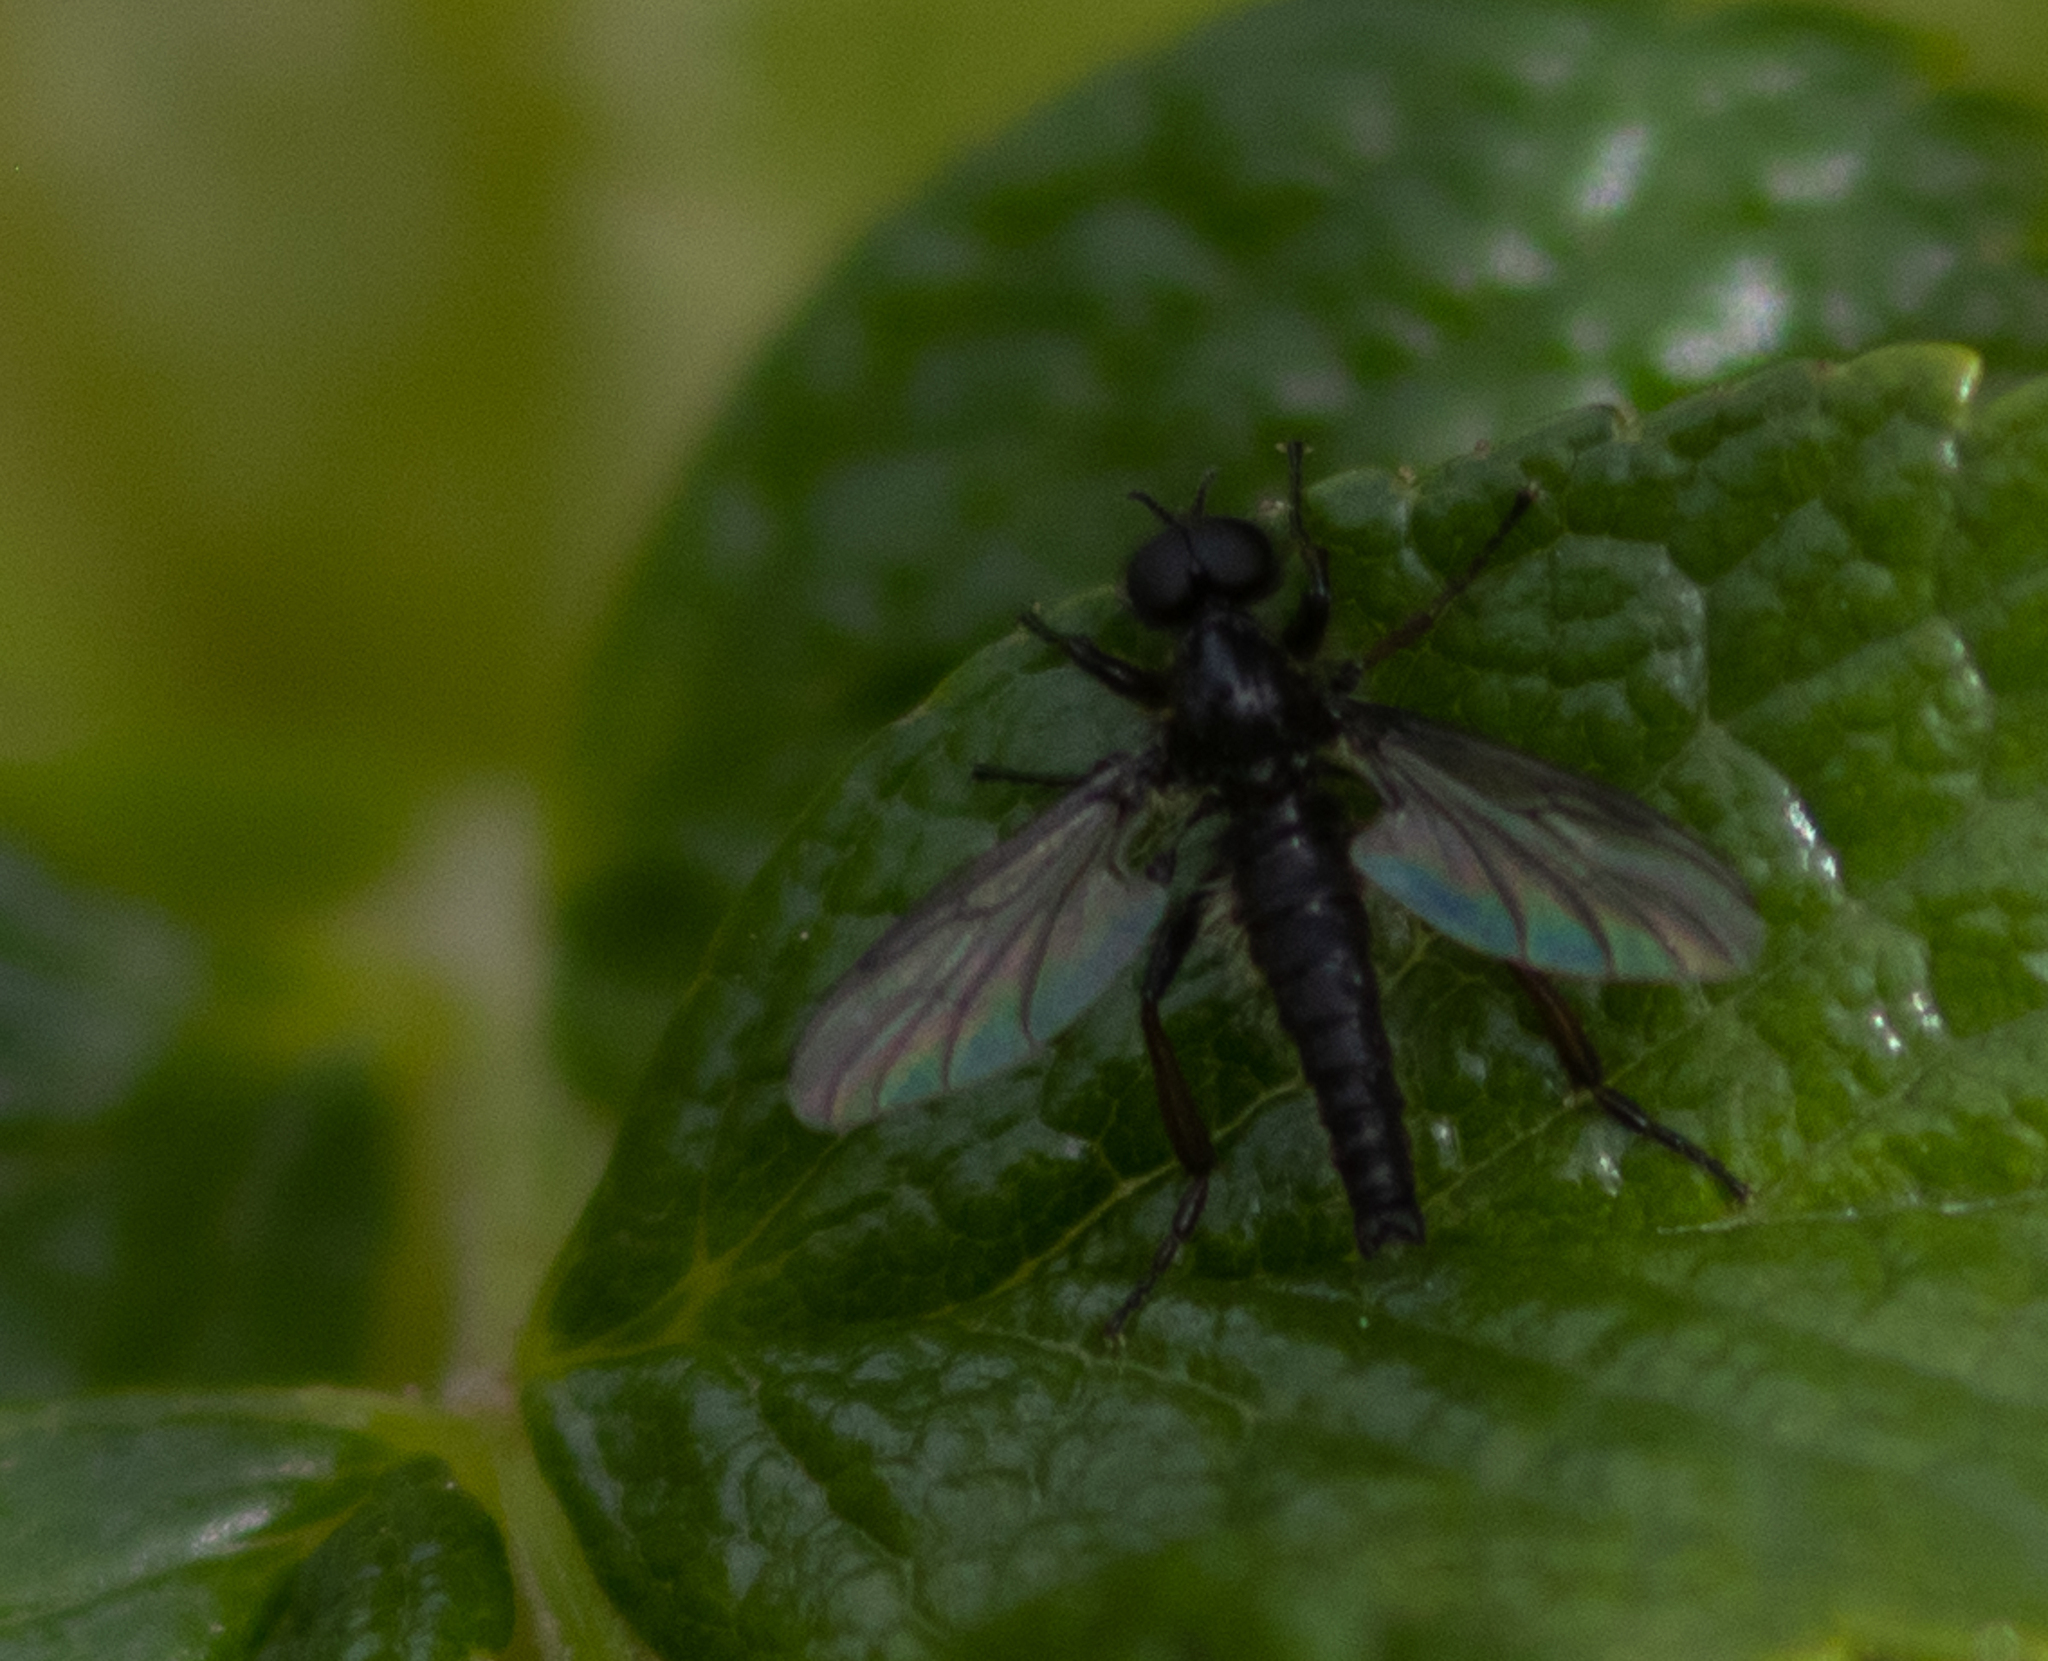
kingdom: Animalia
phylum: Arthropoda
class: Insecta
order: Diptera
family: Bibionidae
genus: Bibio
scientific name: Bibio lanigerus
